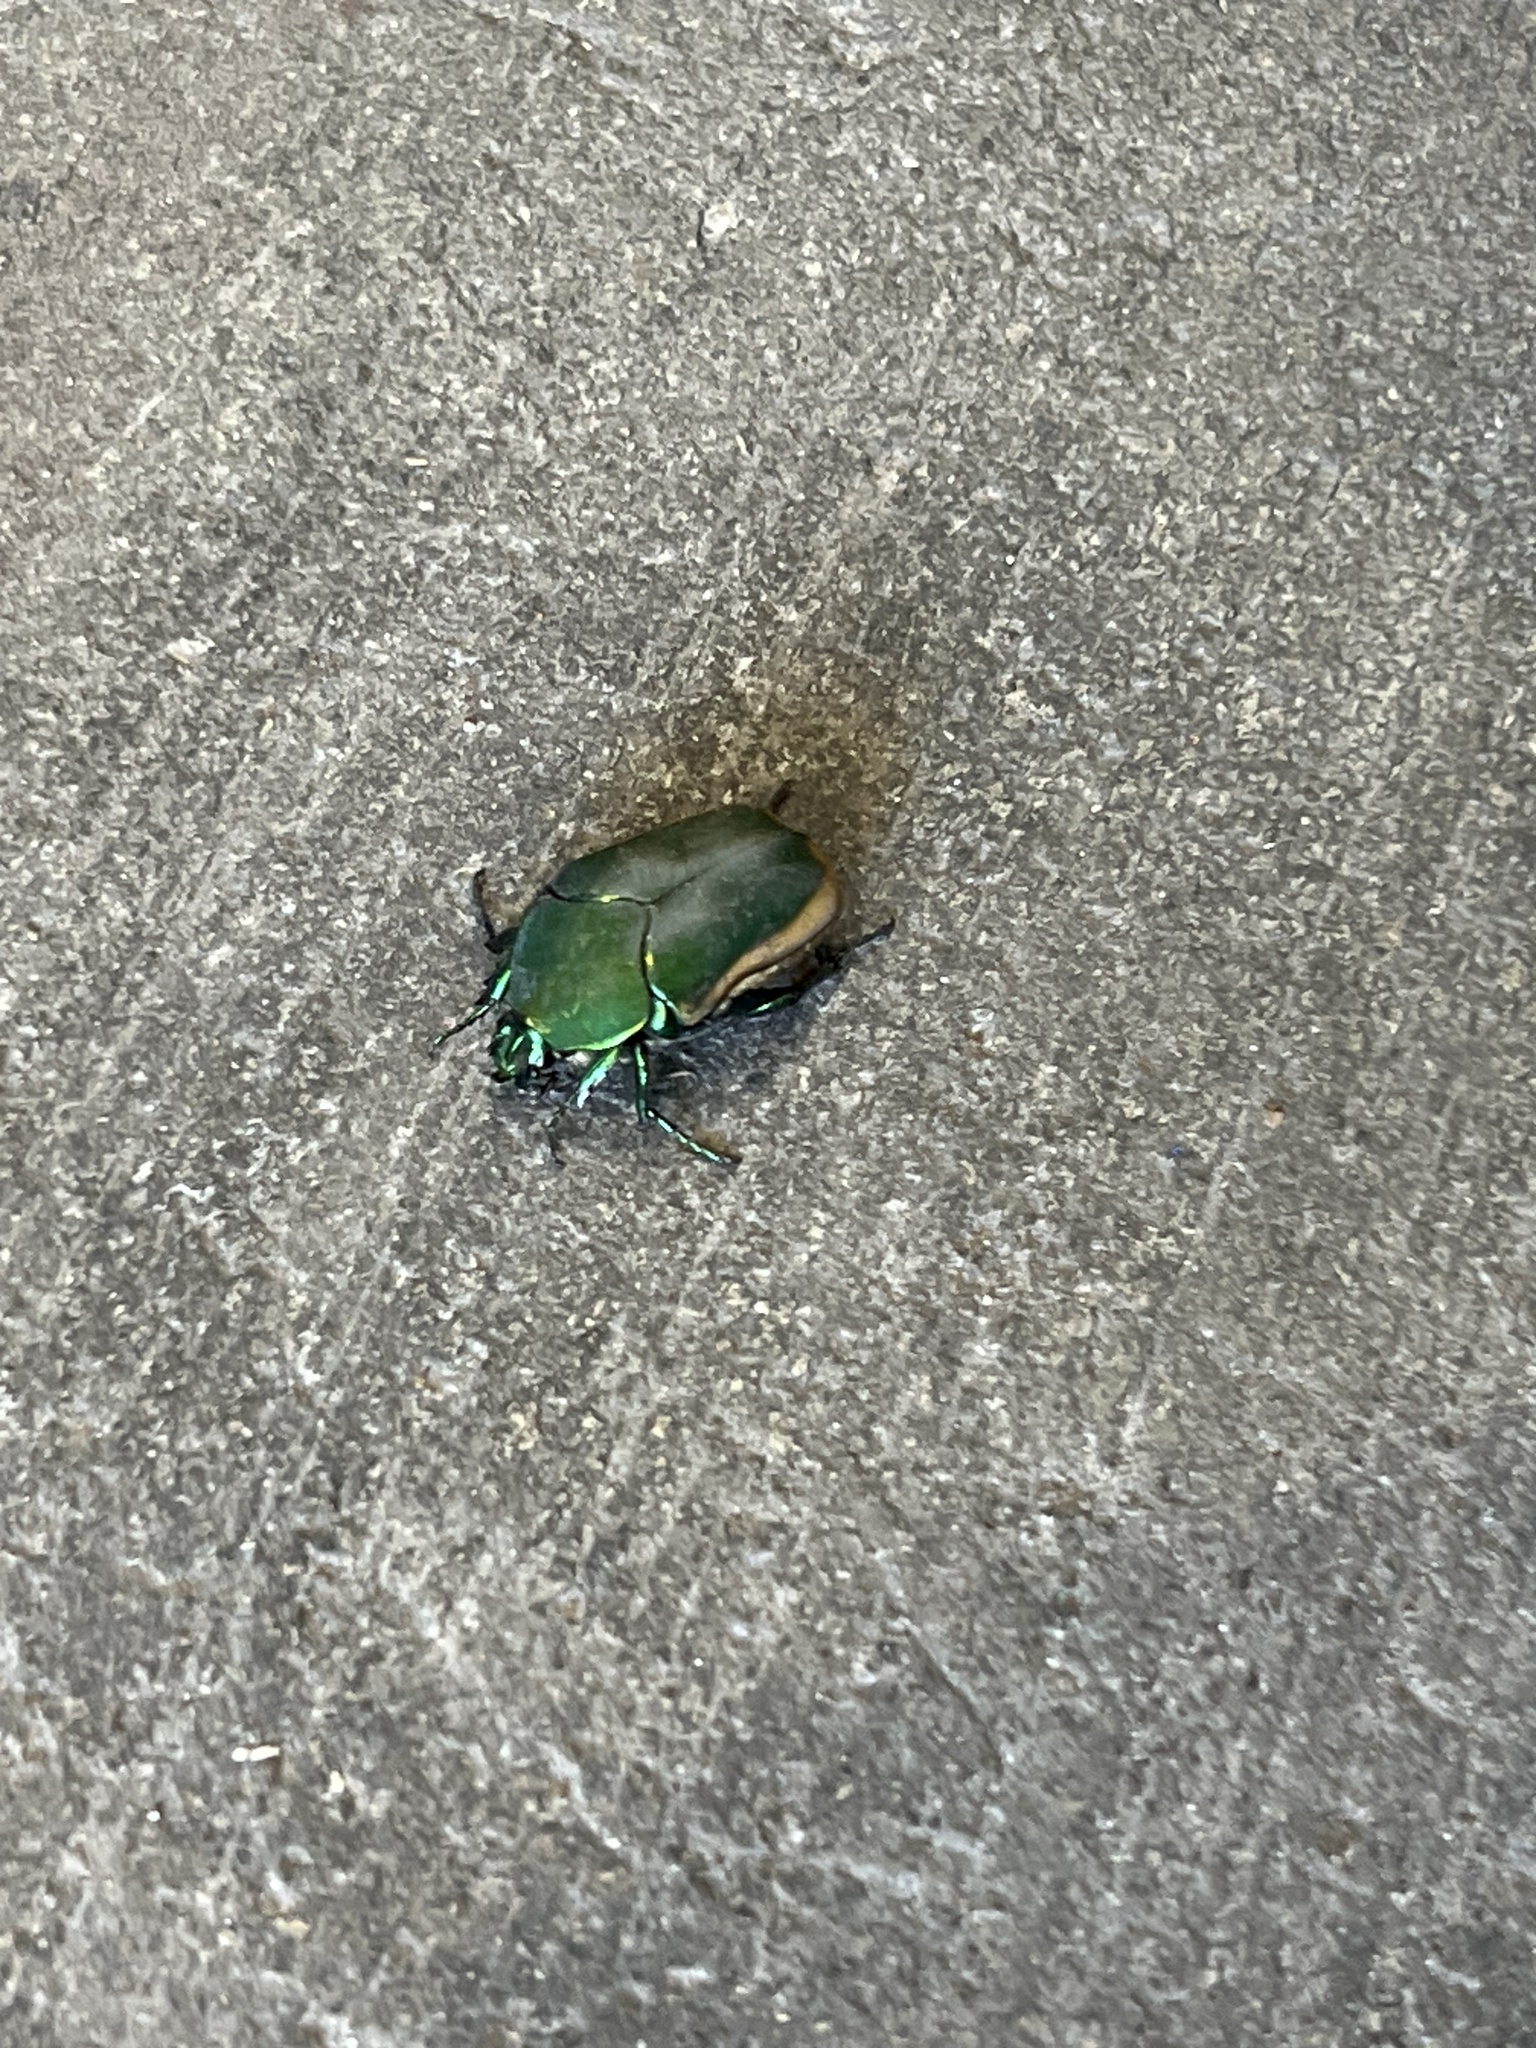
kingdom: Animalia
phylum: Arthropoda
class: Insecta
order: Coleoptera
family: Scarabaeidae
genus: Cotinis
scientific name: Cotinis mutabilis
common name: Figeater beetle
